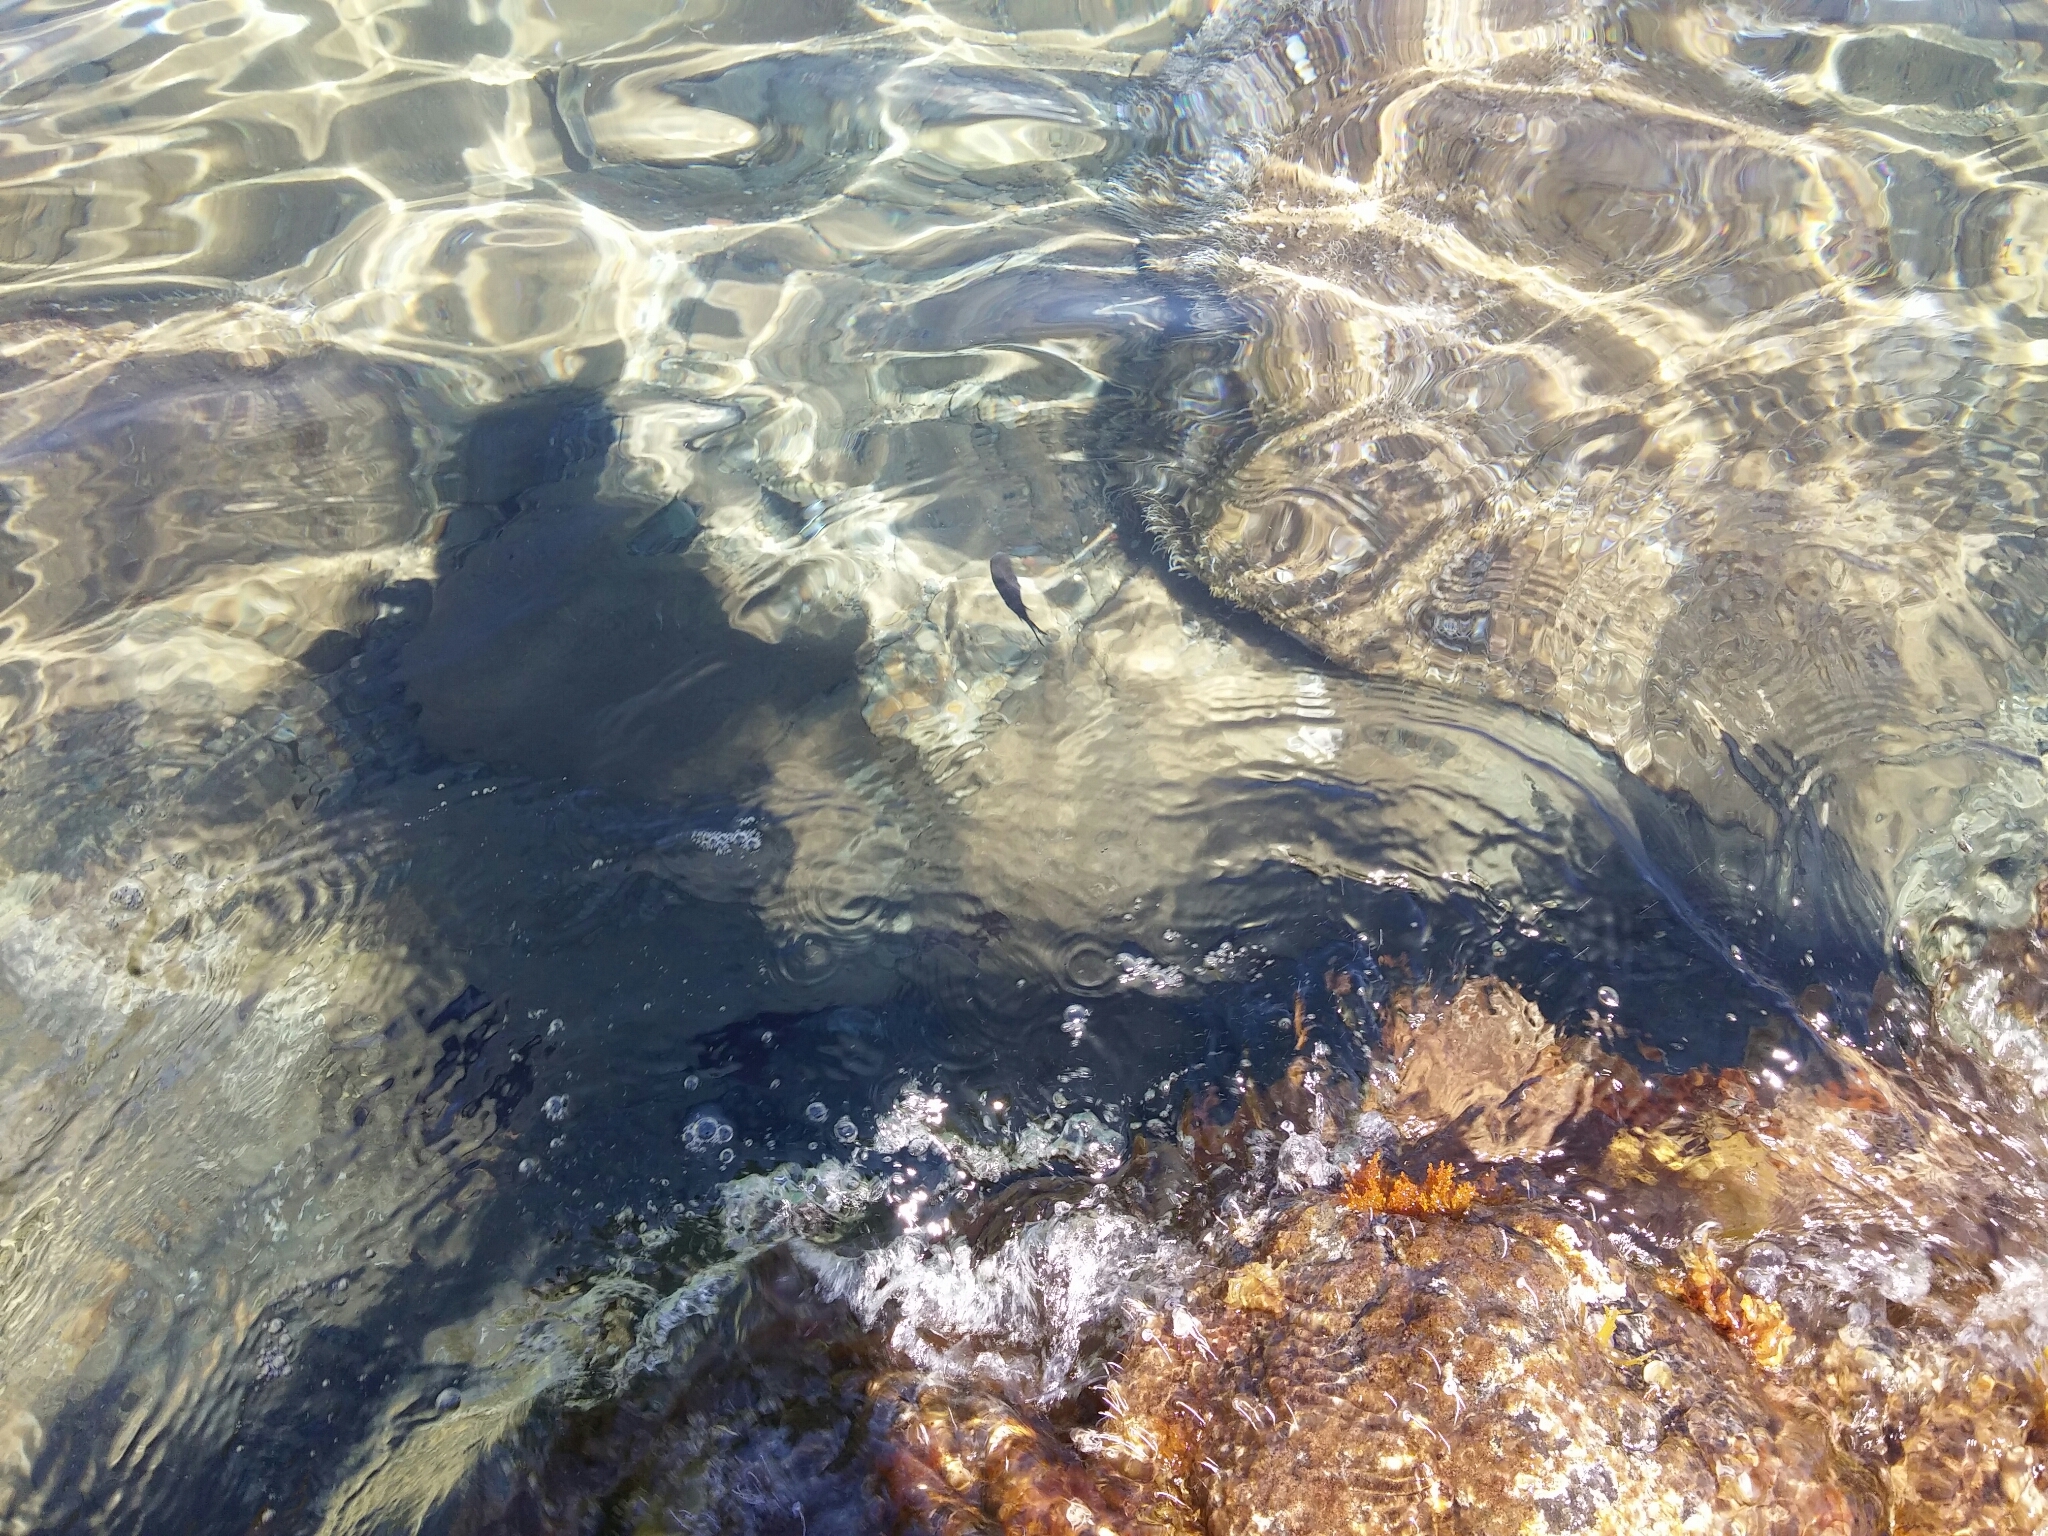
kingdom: Animalia
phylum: Chordata
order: Perciformes
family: Pomacentridae
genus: Chromis
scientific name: Chromis chromis
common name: Damselfish
